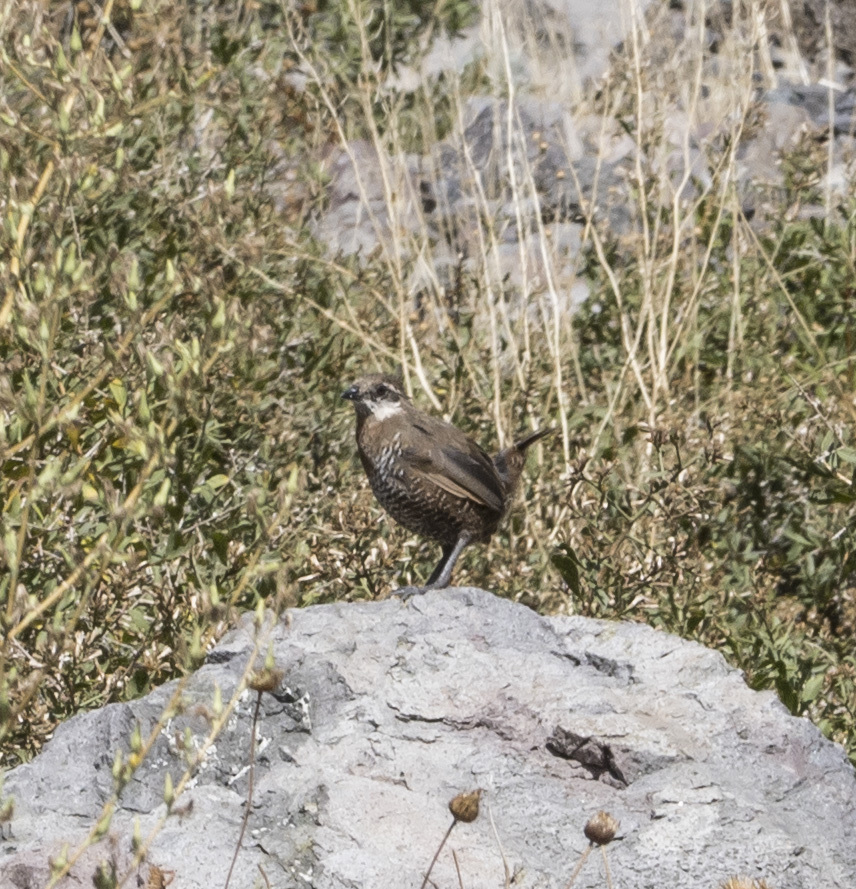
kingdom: Animalia
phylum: Chordata
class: Aves
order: Passeriformes
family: Rhinocryptidae
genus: Pteroptochos
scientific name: Pteroptochos megapodius
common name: Moustached turca
